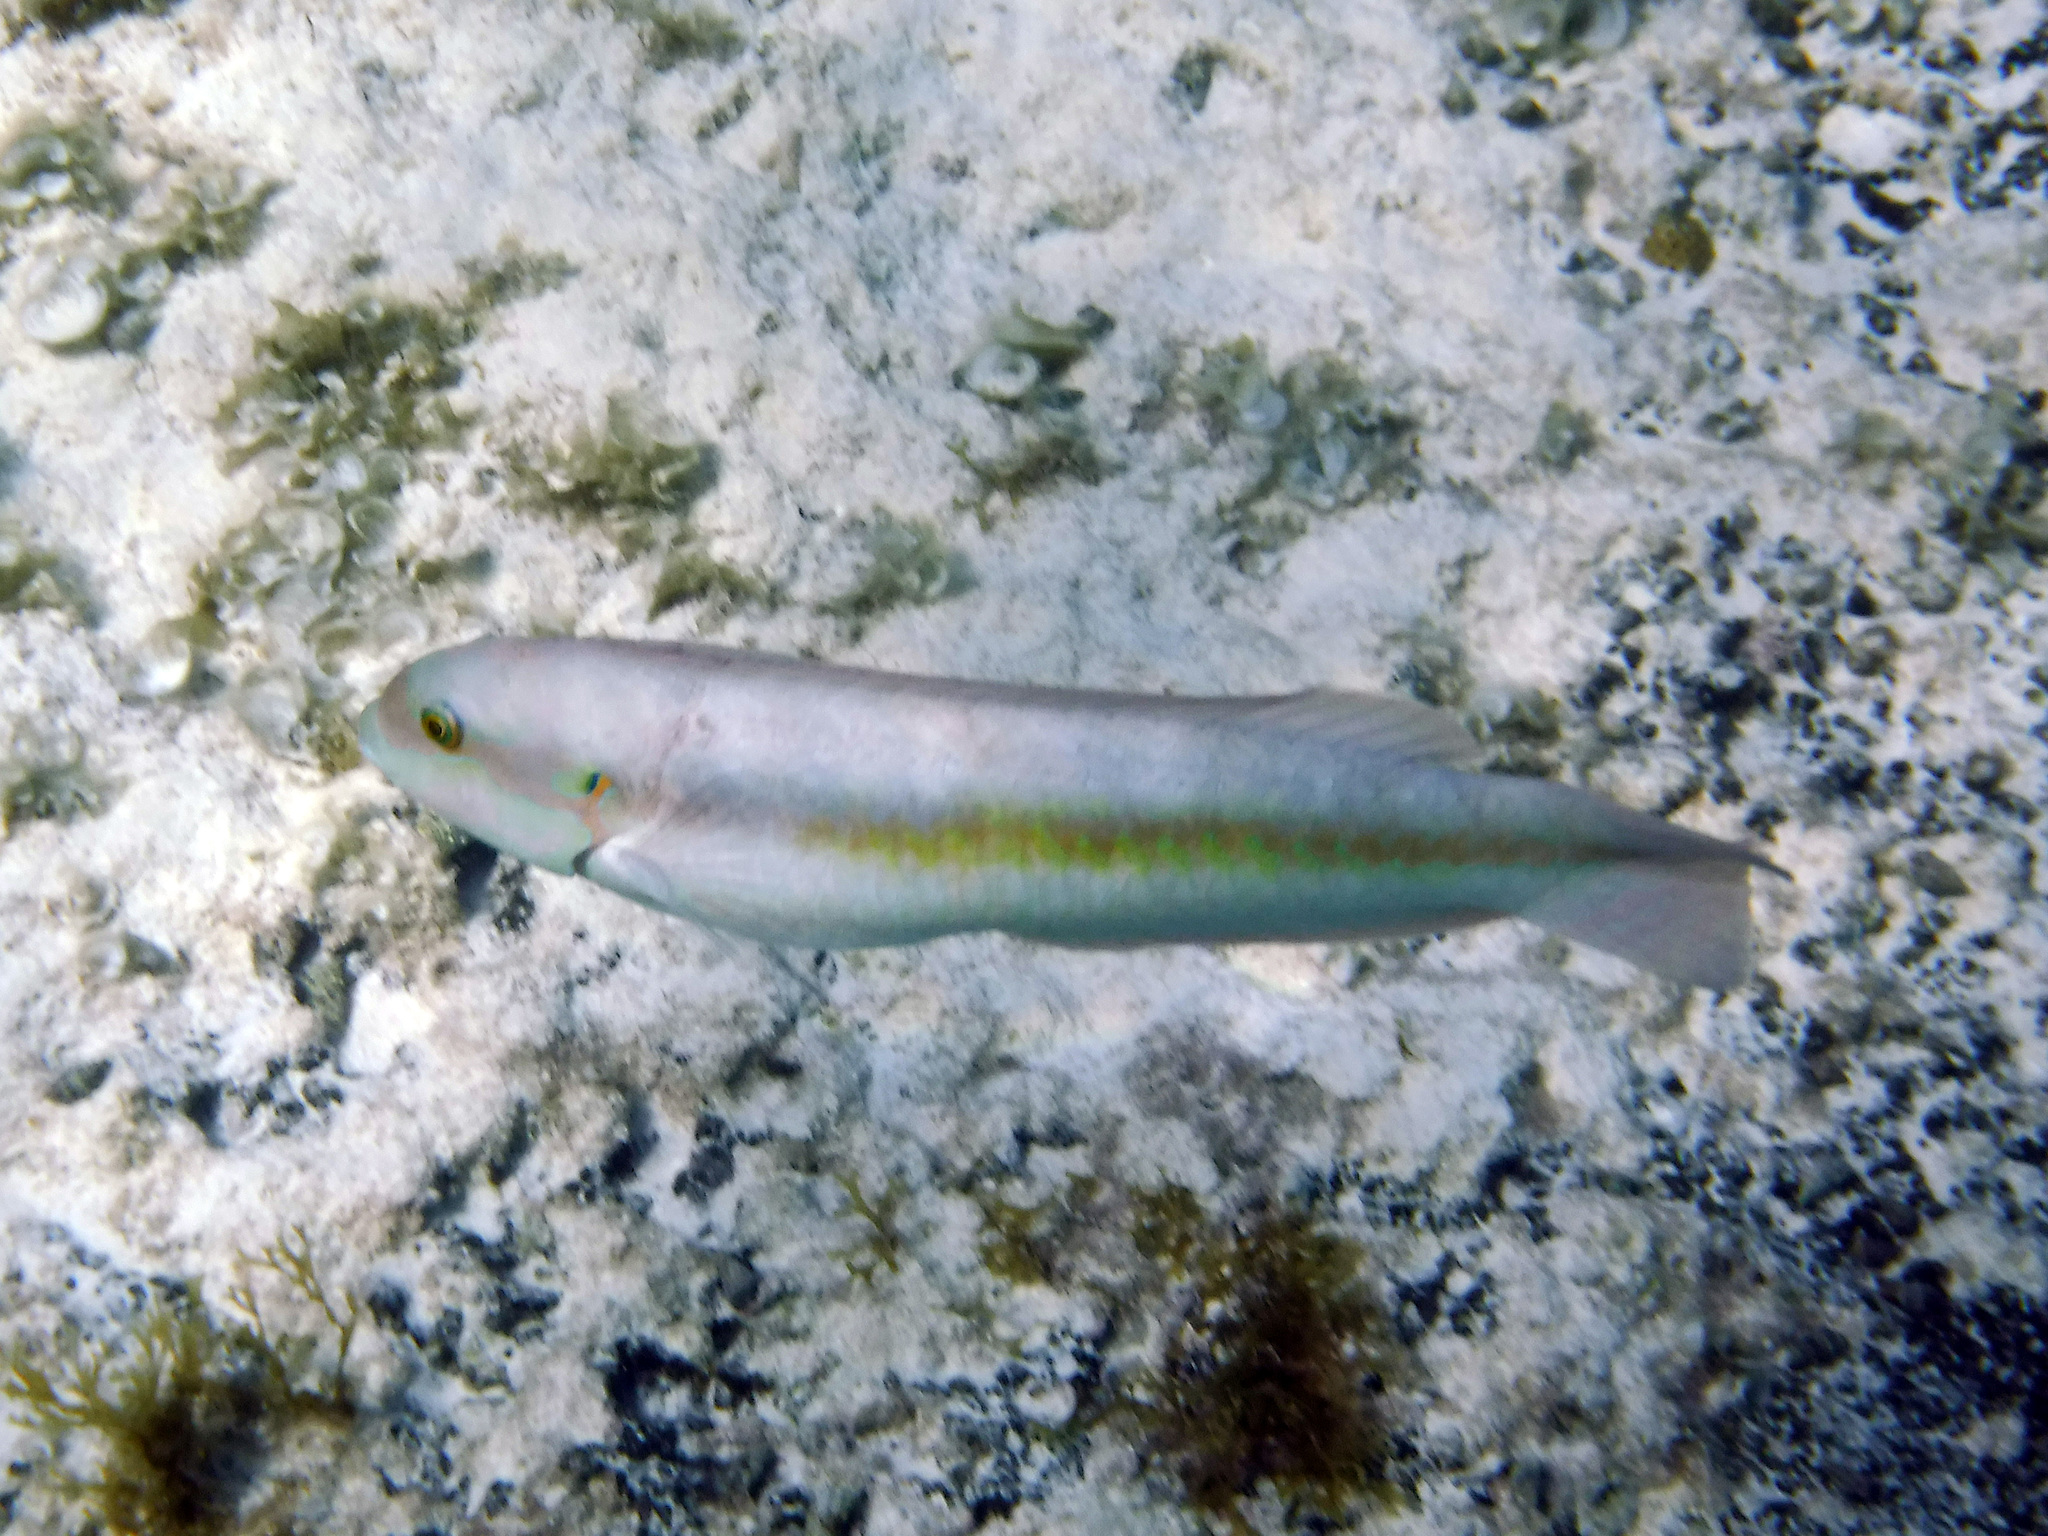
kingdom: Animalia
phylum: Chordata
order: Perciformes
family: Labridae
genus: Halichoeres
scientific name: Halichoeres bivittatus
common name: Slippery dick
